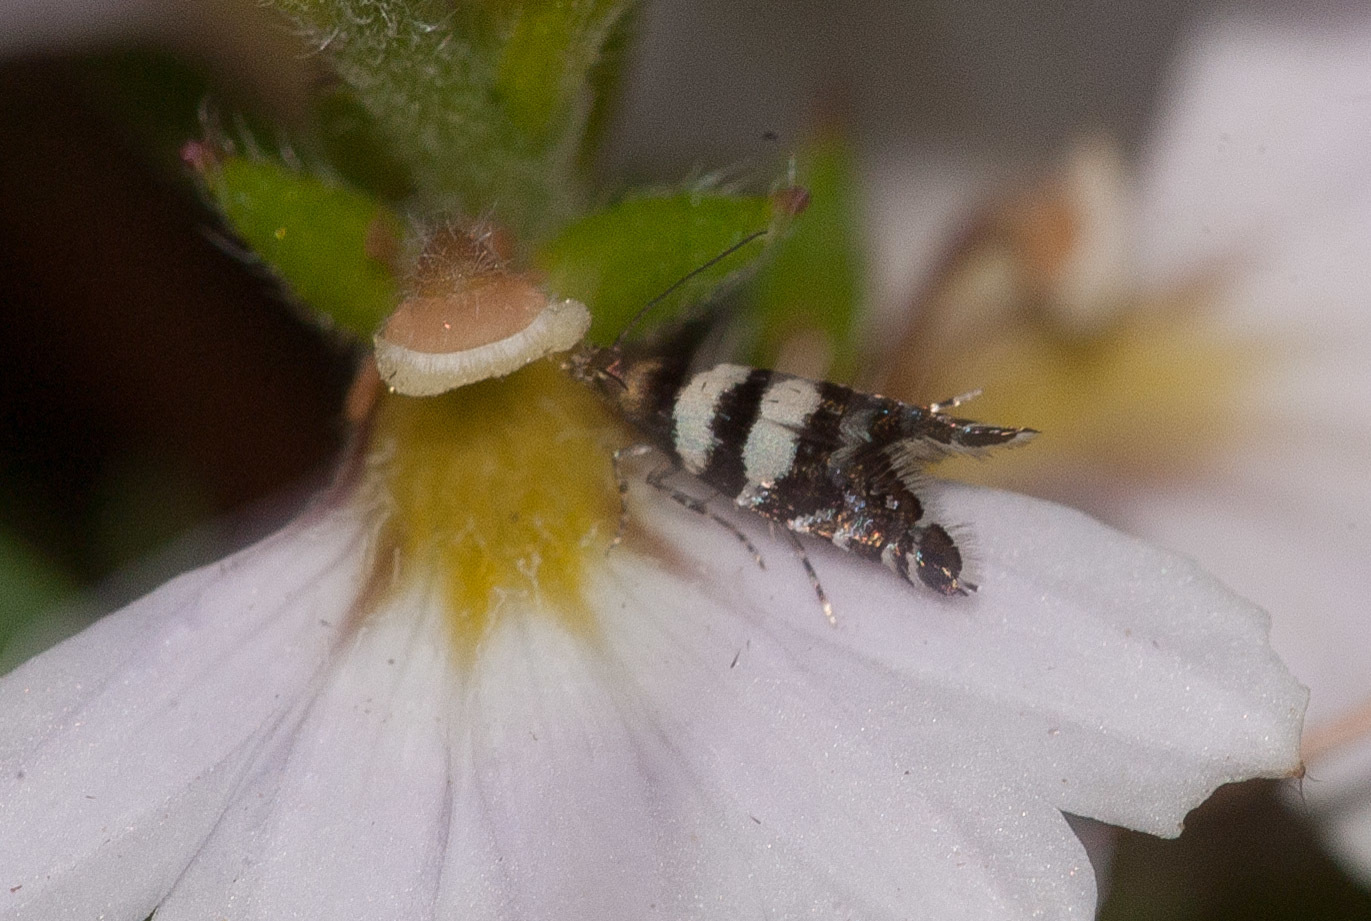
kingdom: Animalia
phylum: Arthropoda
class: Insecta
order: Lepidoptera
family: Glyphipterigidae
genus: Glyphipterix
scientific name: Glyphipterix meteora
